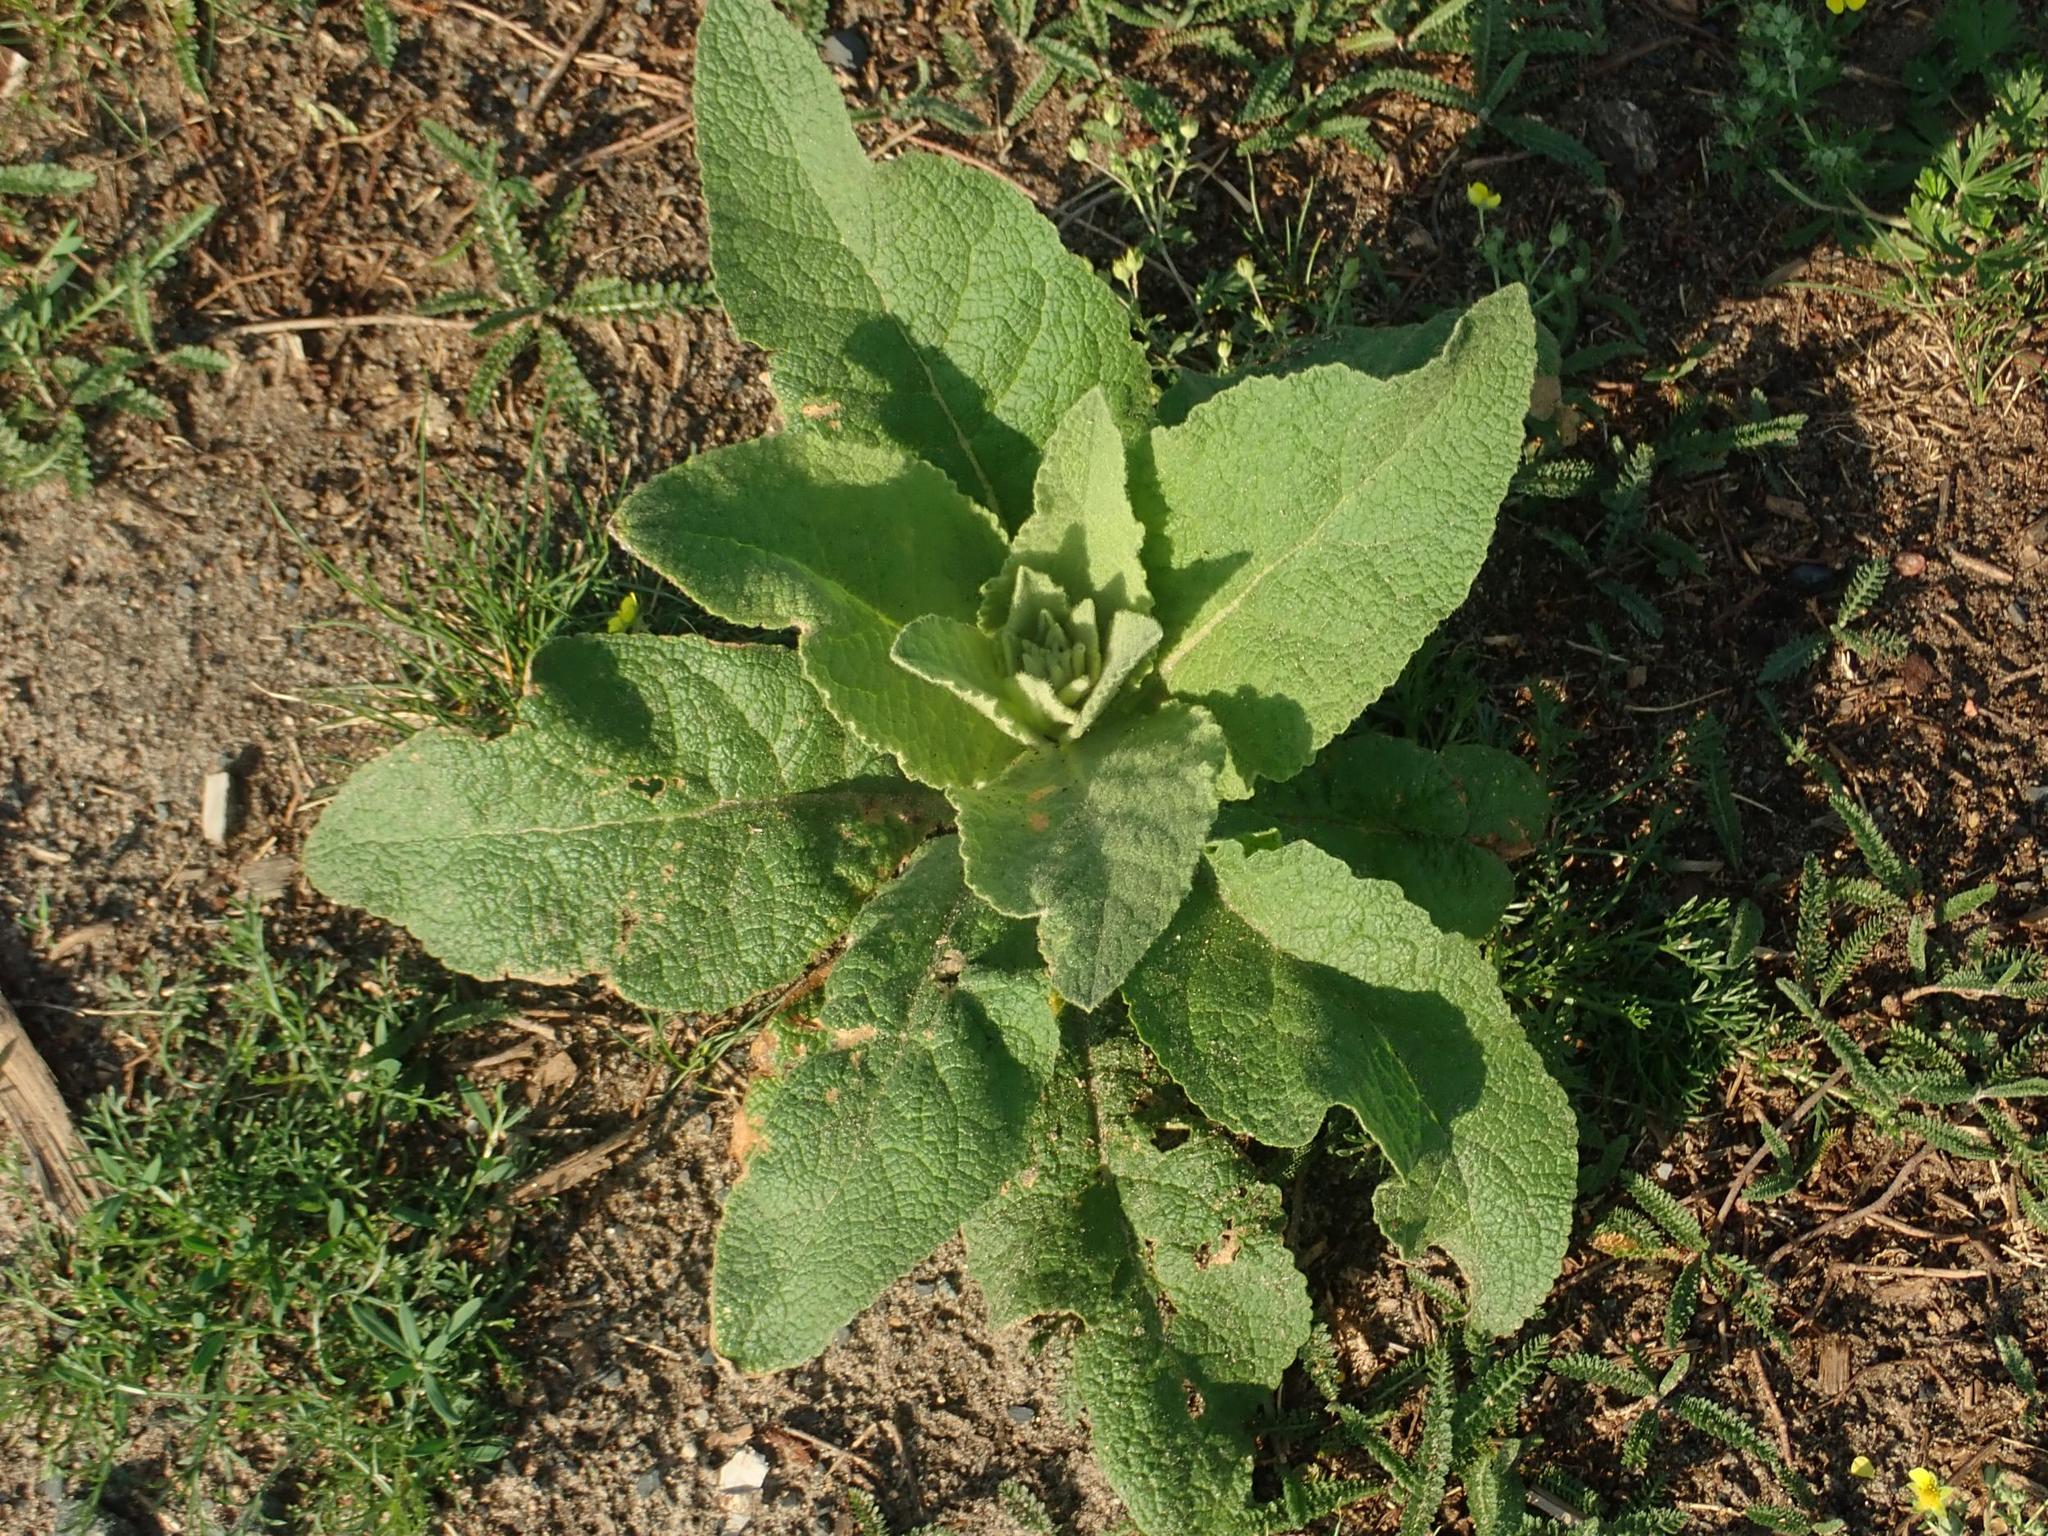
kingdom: Plantae
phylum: Tracheophyta
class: Magnoliopsida
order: Lamiales
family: Scrophulariaceae
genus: Verbascum
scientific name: Verbascum thapsus
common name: Common mullein
